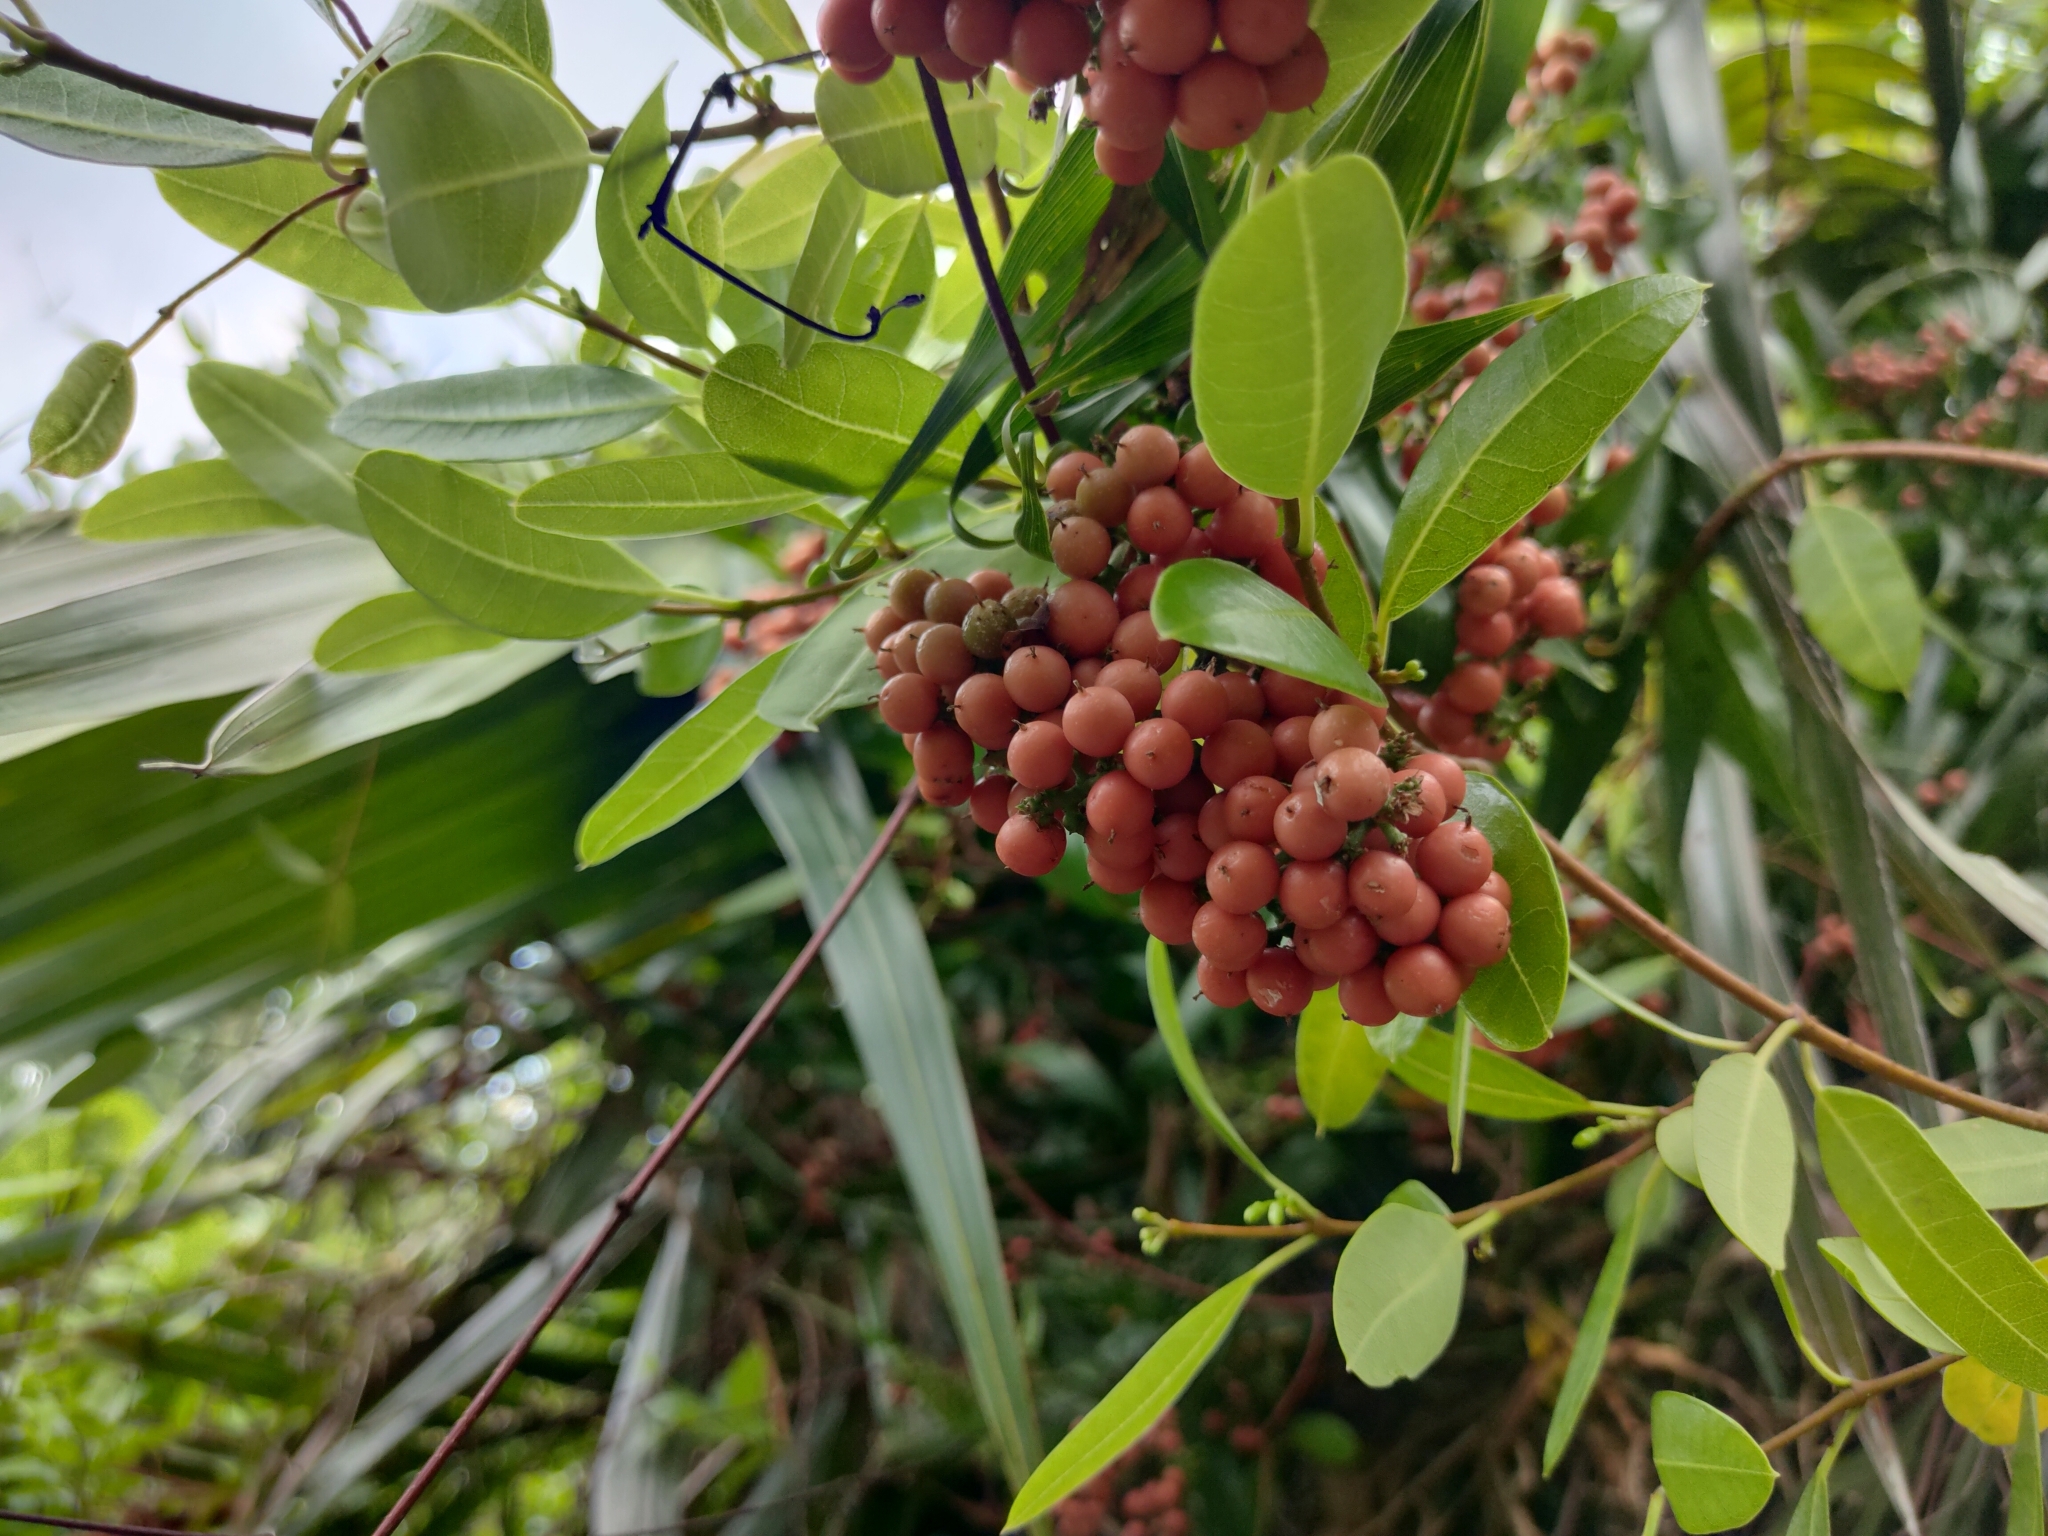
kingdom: Plantae
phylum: Tracheophyta
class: Liliopsida
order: Poales
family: Flagellariaceae
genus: Flagellaria
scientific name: Flagellaria indica
